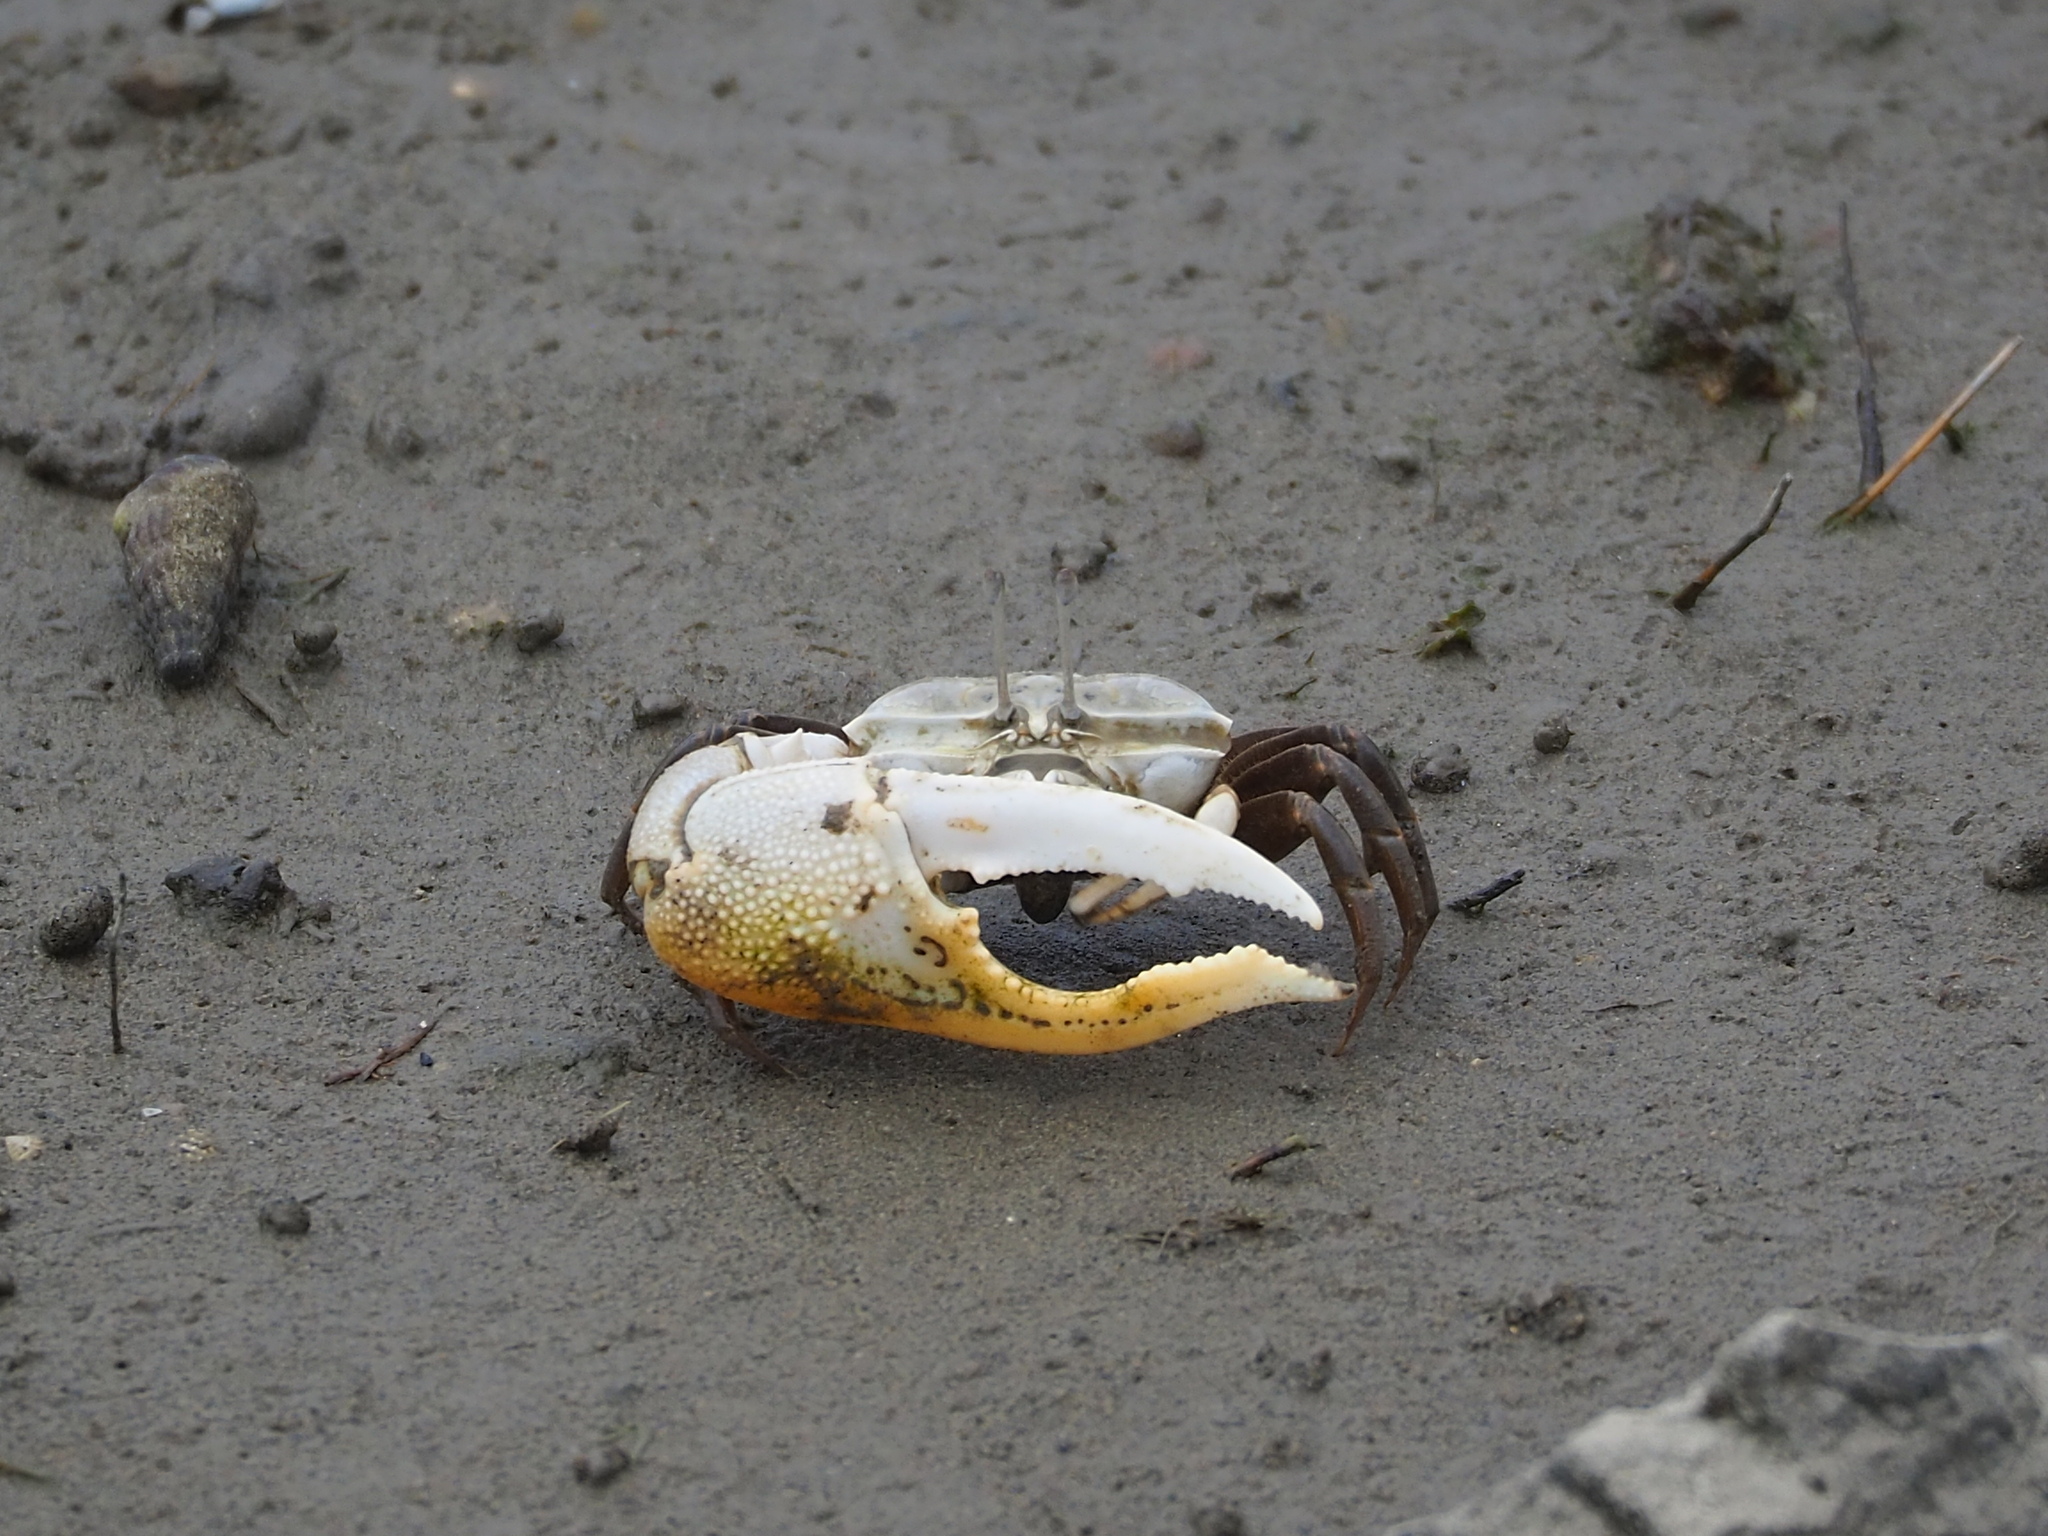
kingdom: Animalia
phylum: Arthropoda
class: Malacostraca
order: Decapoda
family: Ocypodidae
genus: Gelasimus
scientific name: Gelasimus borealis
